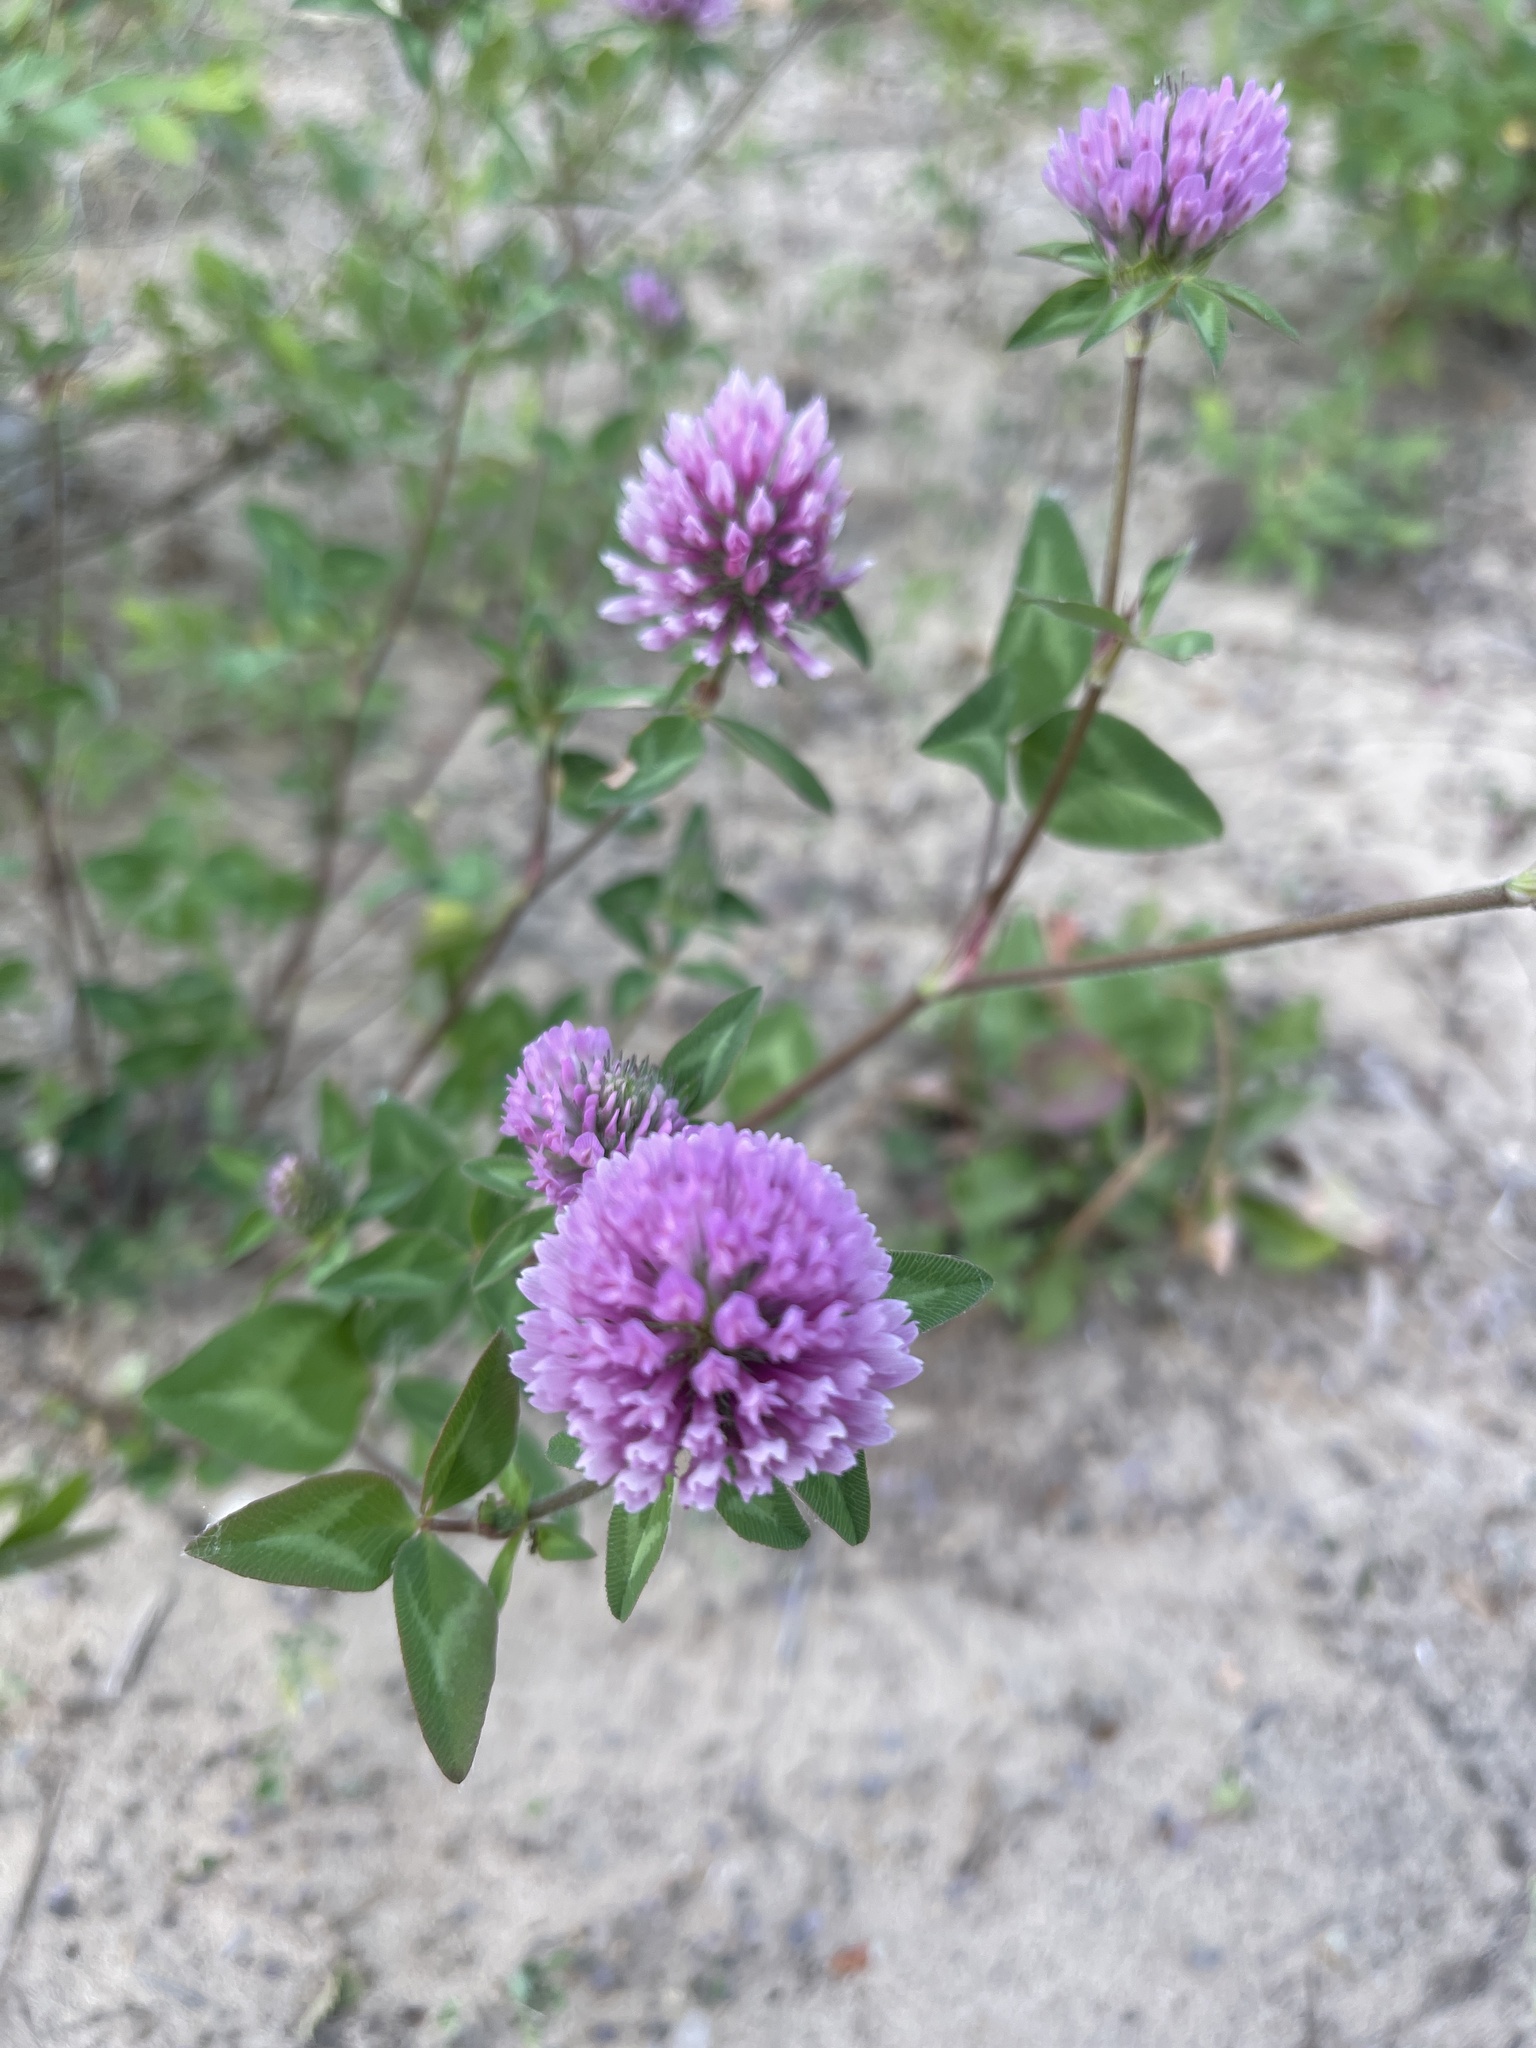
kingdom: Plantae
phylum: Tracheophyta
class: Magnoliopsida
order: Fabales
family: Fabaceae
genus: Trifolium
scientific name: Trifolium pratense
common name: Red clover
